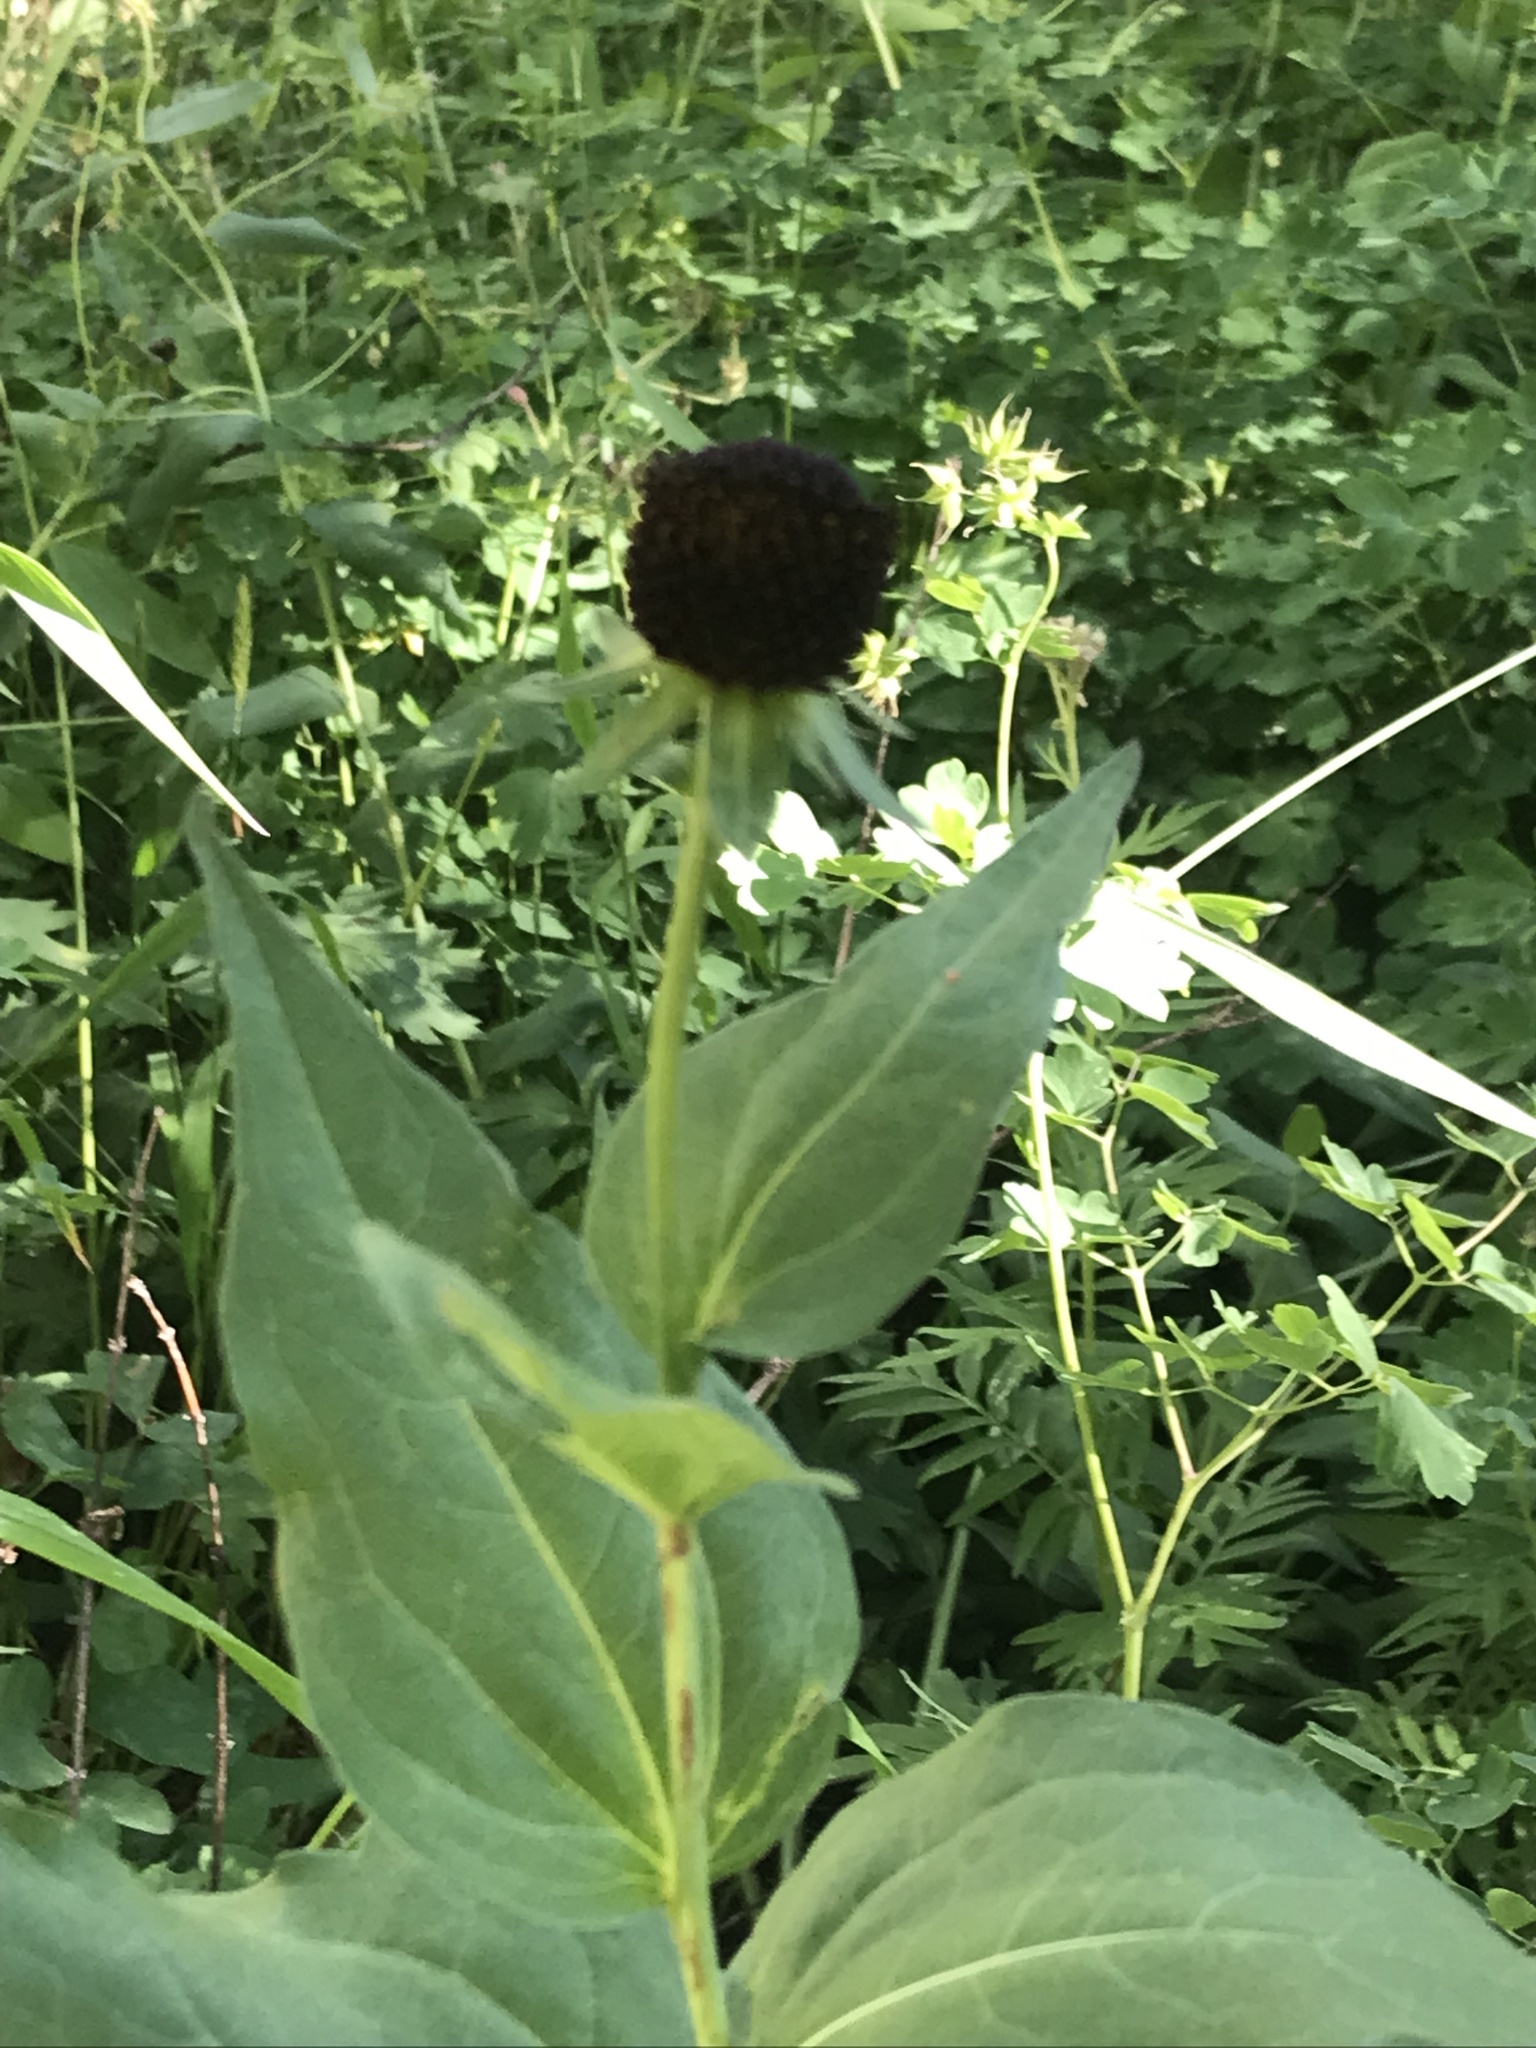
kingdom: Plantae
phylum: Tracheophyta
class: Magnoliopsida
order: Asterales
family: Asteraceae
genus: Rudbeckia
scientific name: Rudbeckia occidentalis
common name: Western coneflower
